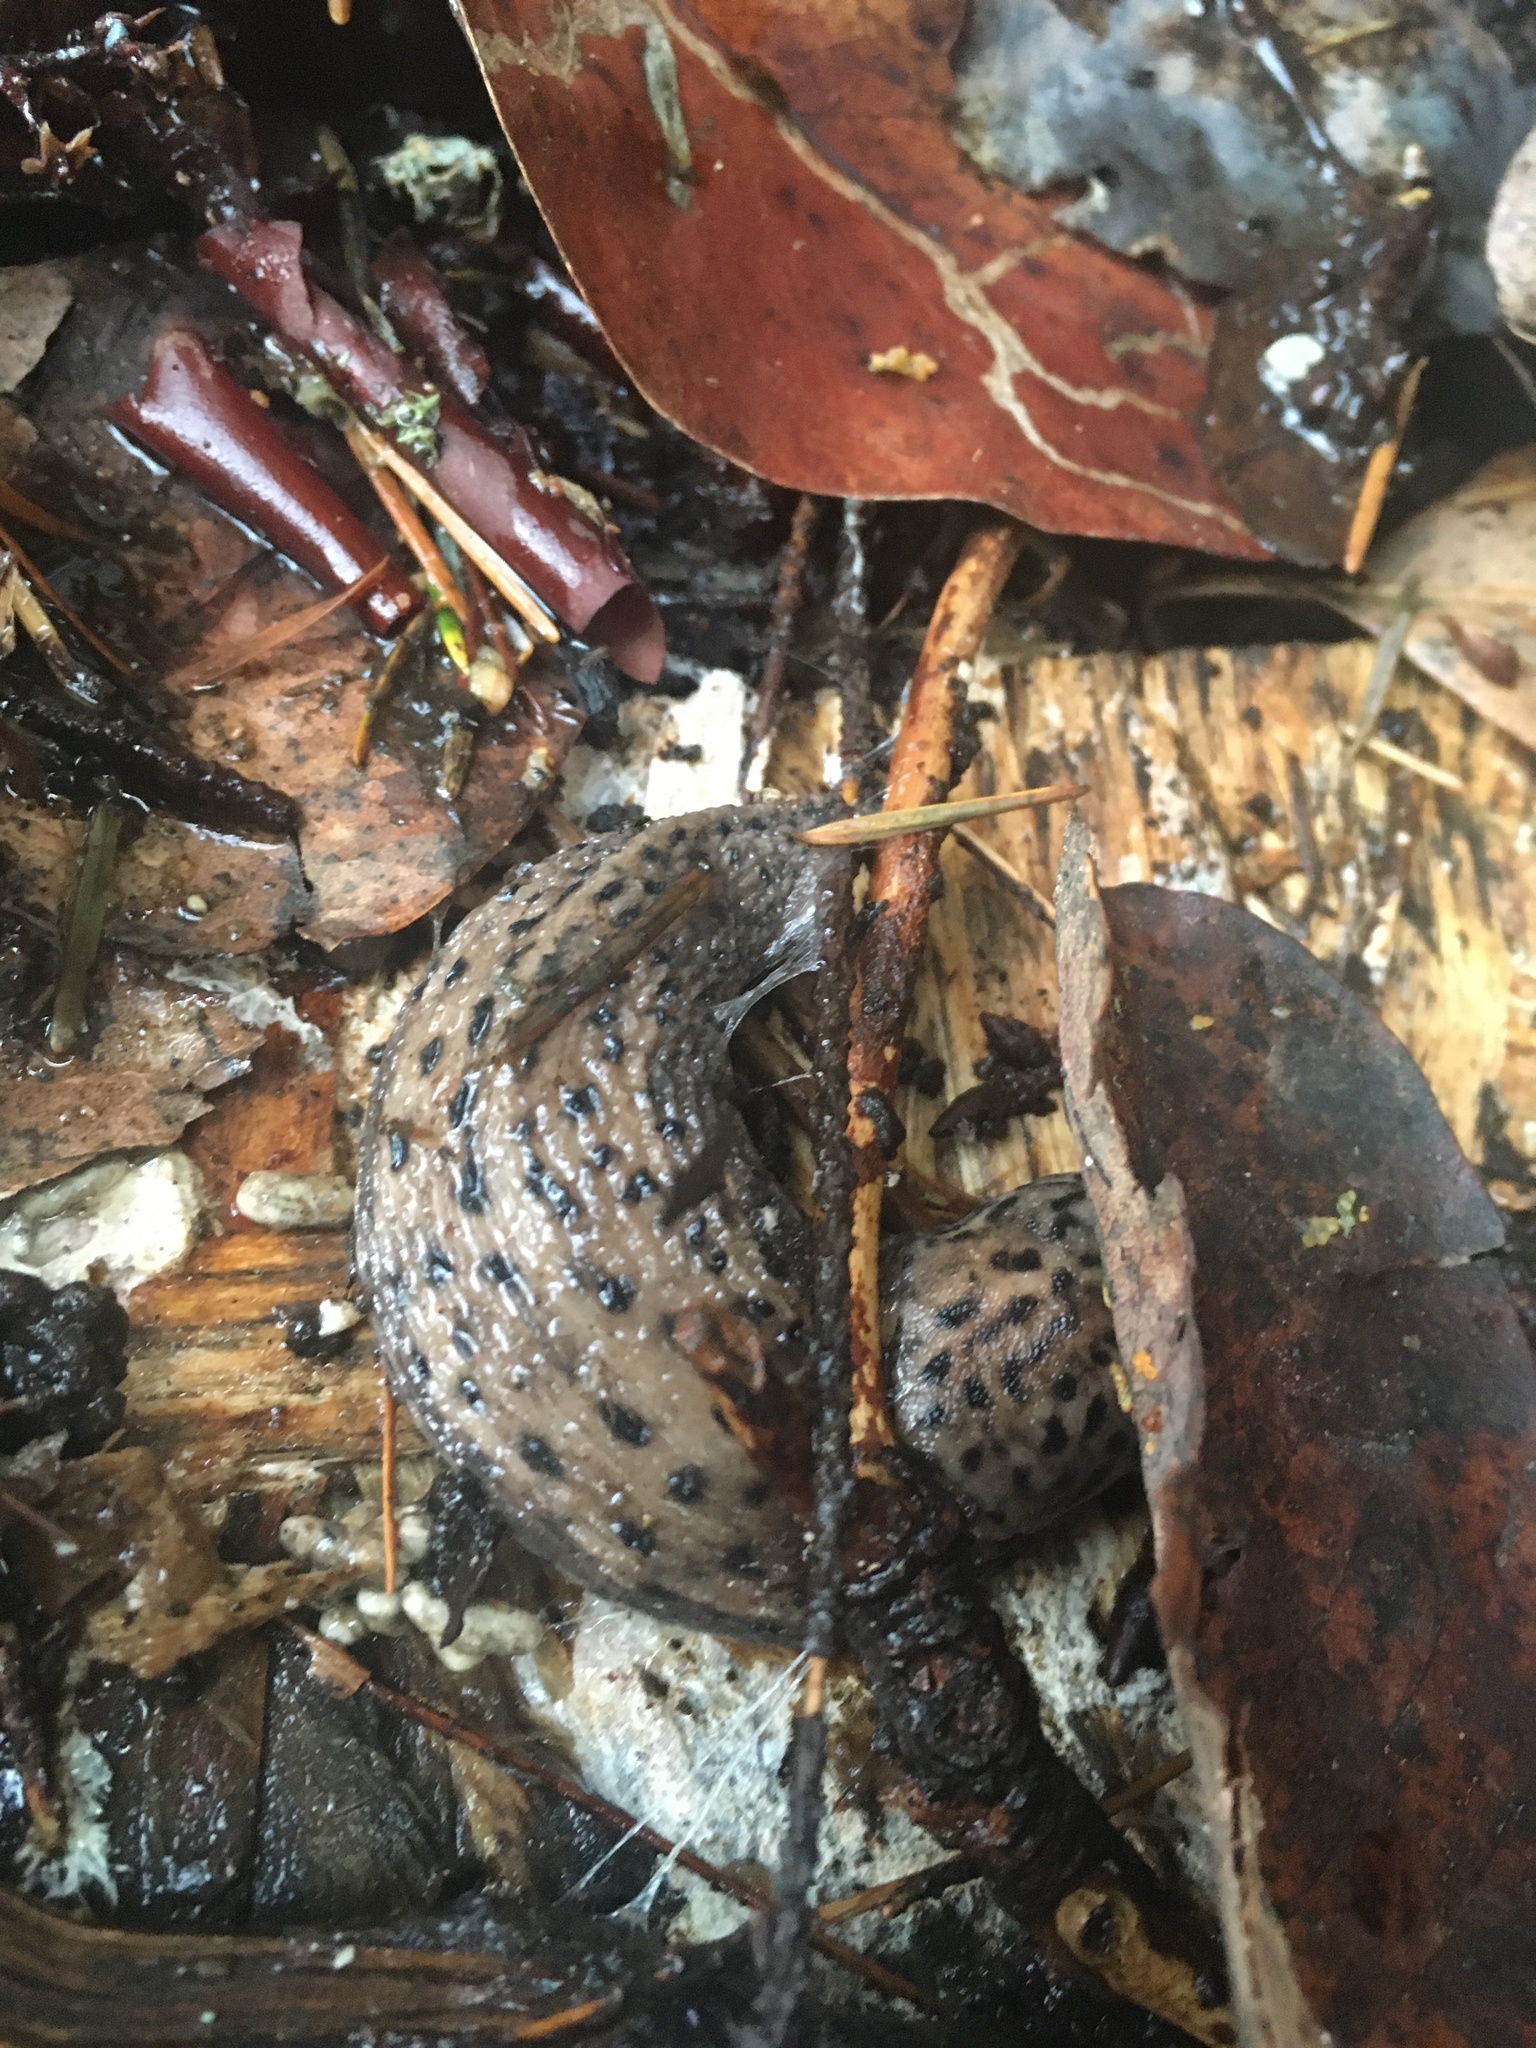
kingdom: Animalia
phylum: Mollusca
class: Gastropoda
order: Stylommatophora
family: Limacidae
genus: Limax
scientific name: Limax maximus
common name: Great grey slug
